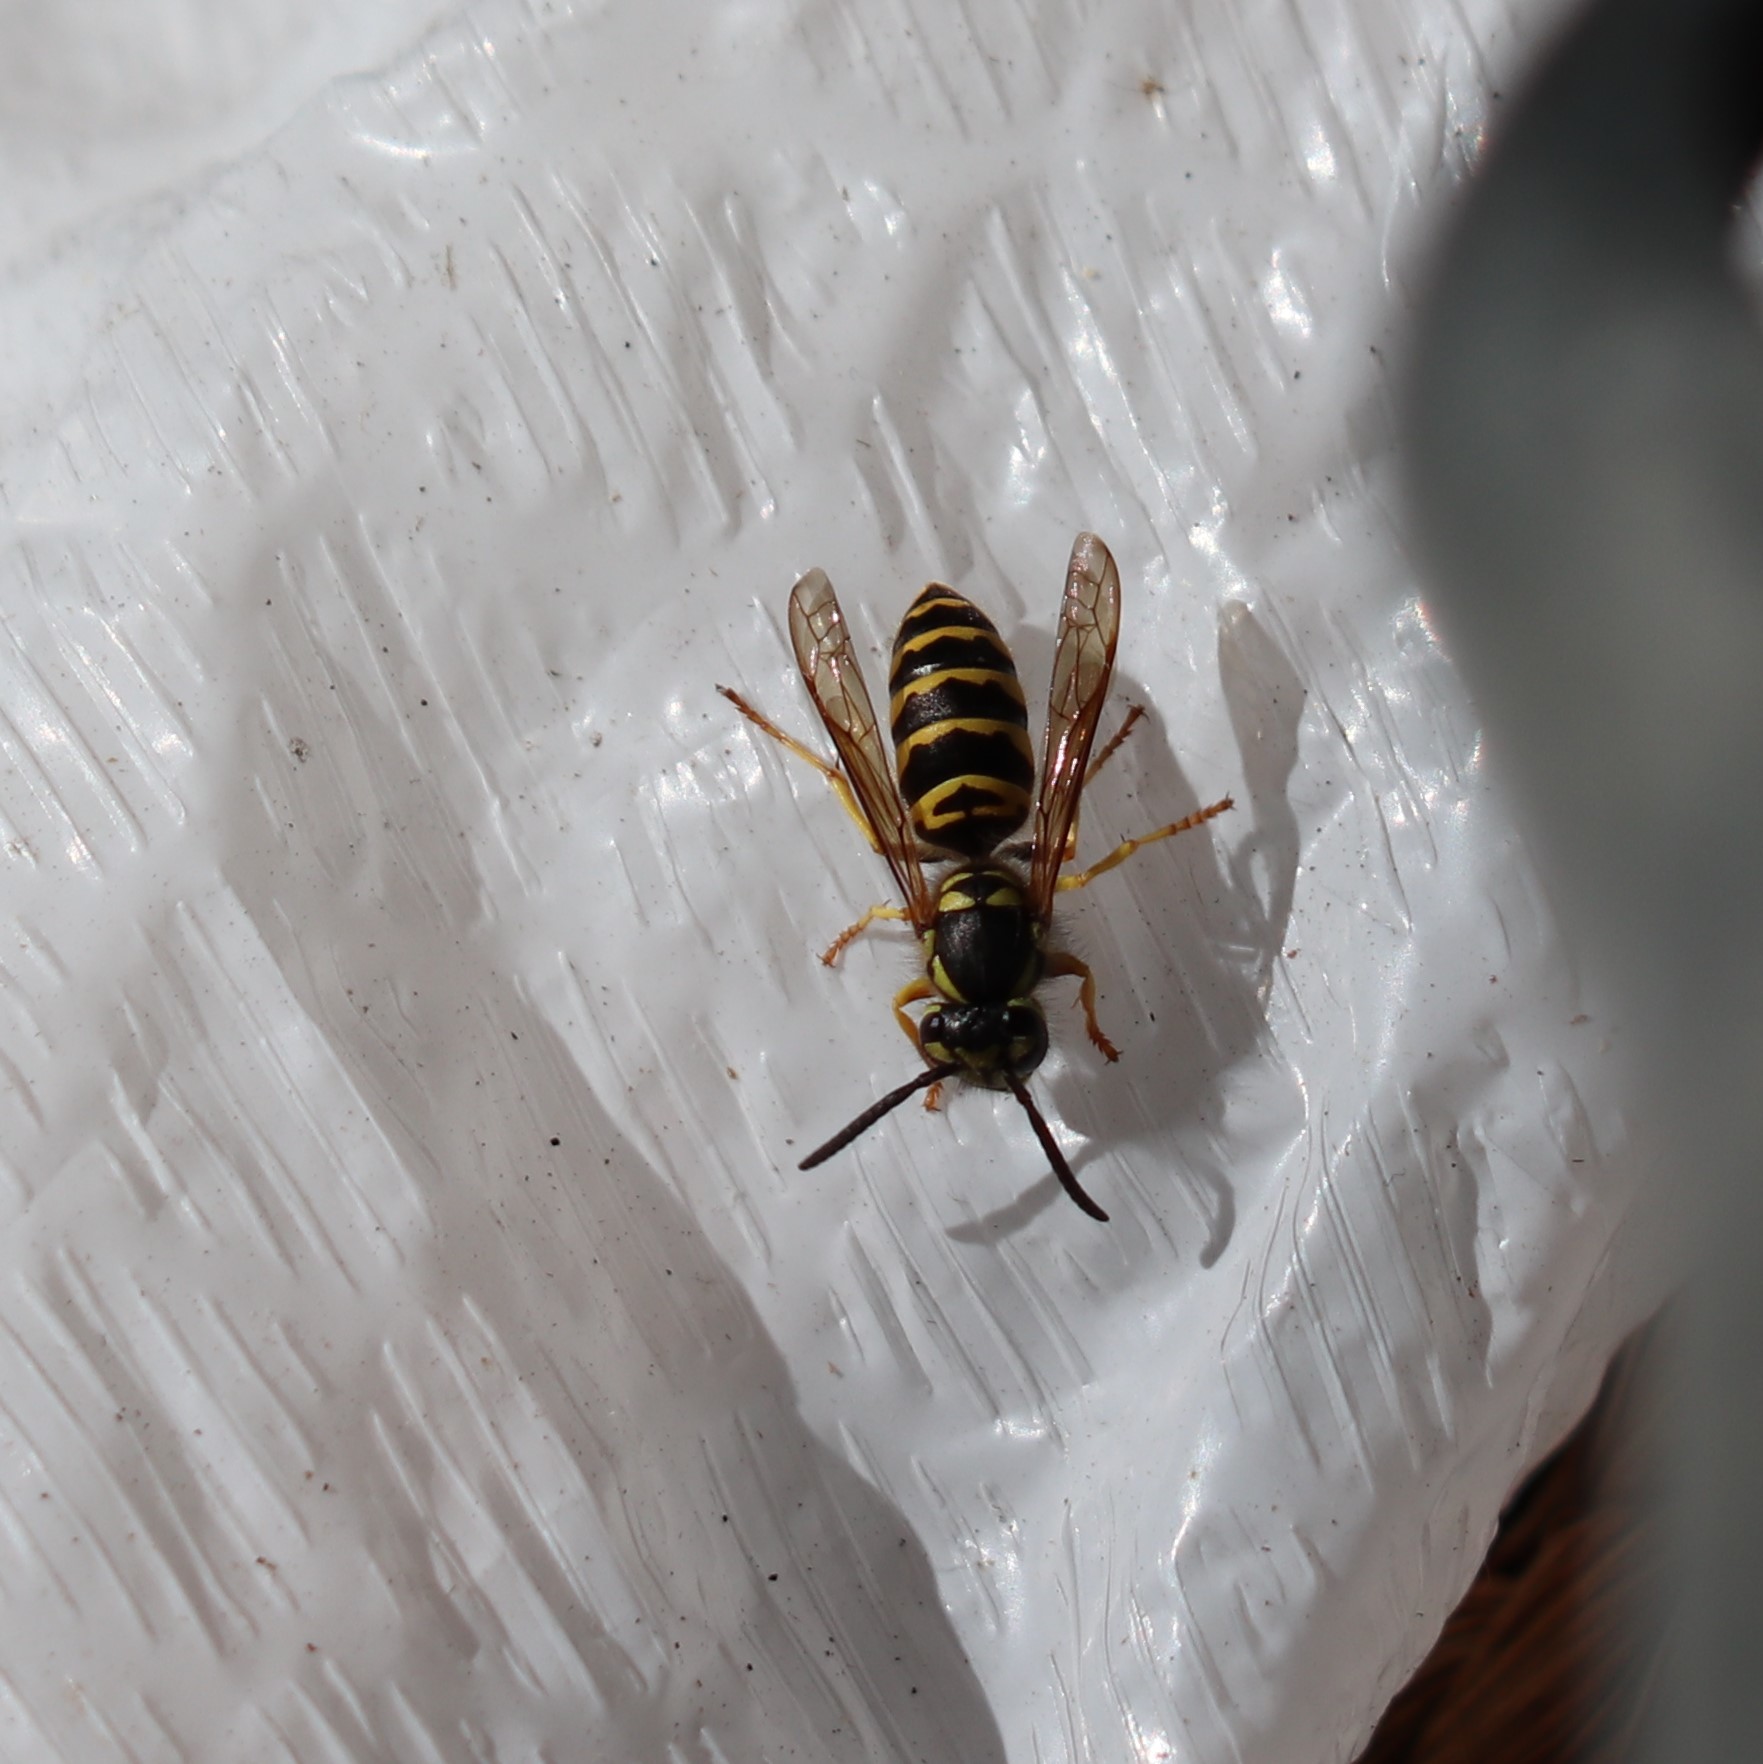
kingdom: Animalia
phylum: Arthropoda
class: Insecta
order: Hymenoptera
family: Vespidae
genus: Vespula
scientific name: Vespula maculifrons
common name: Eastern yellowjacket
